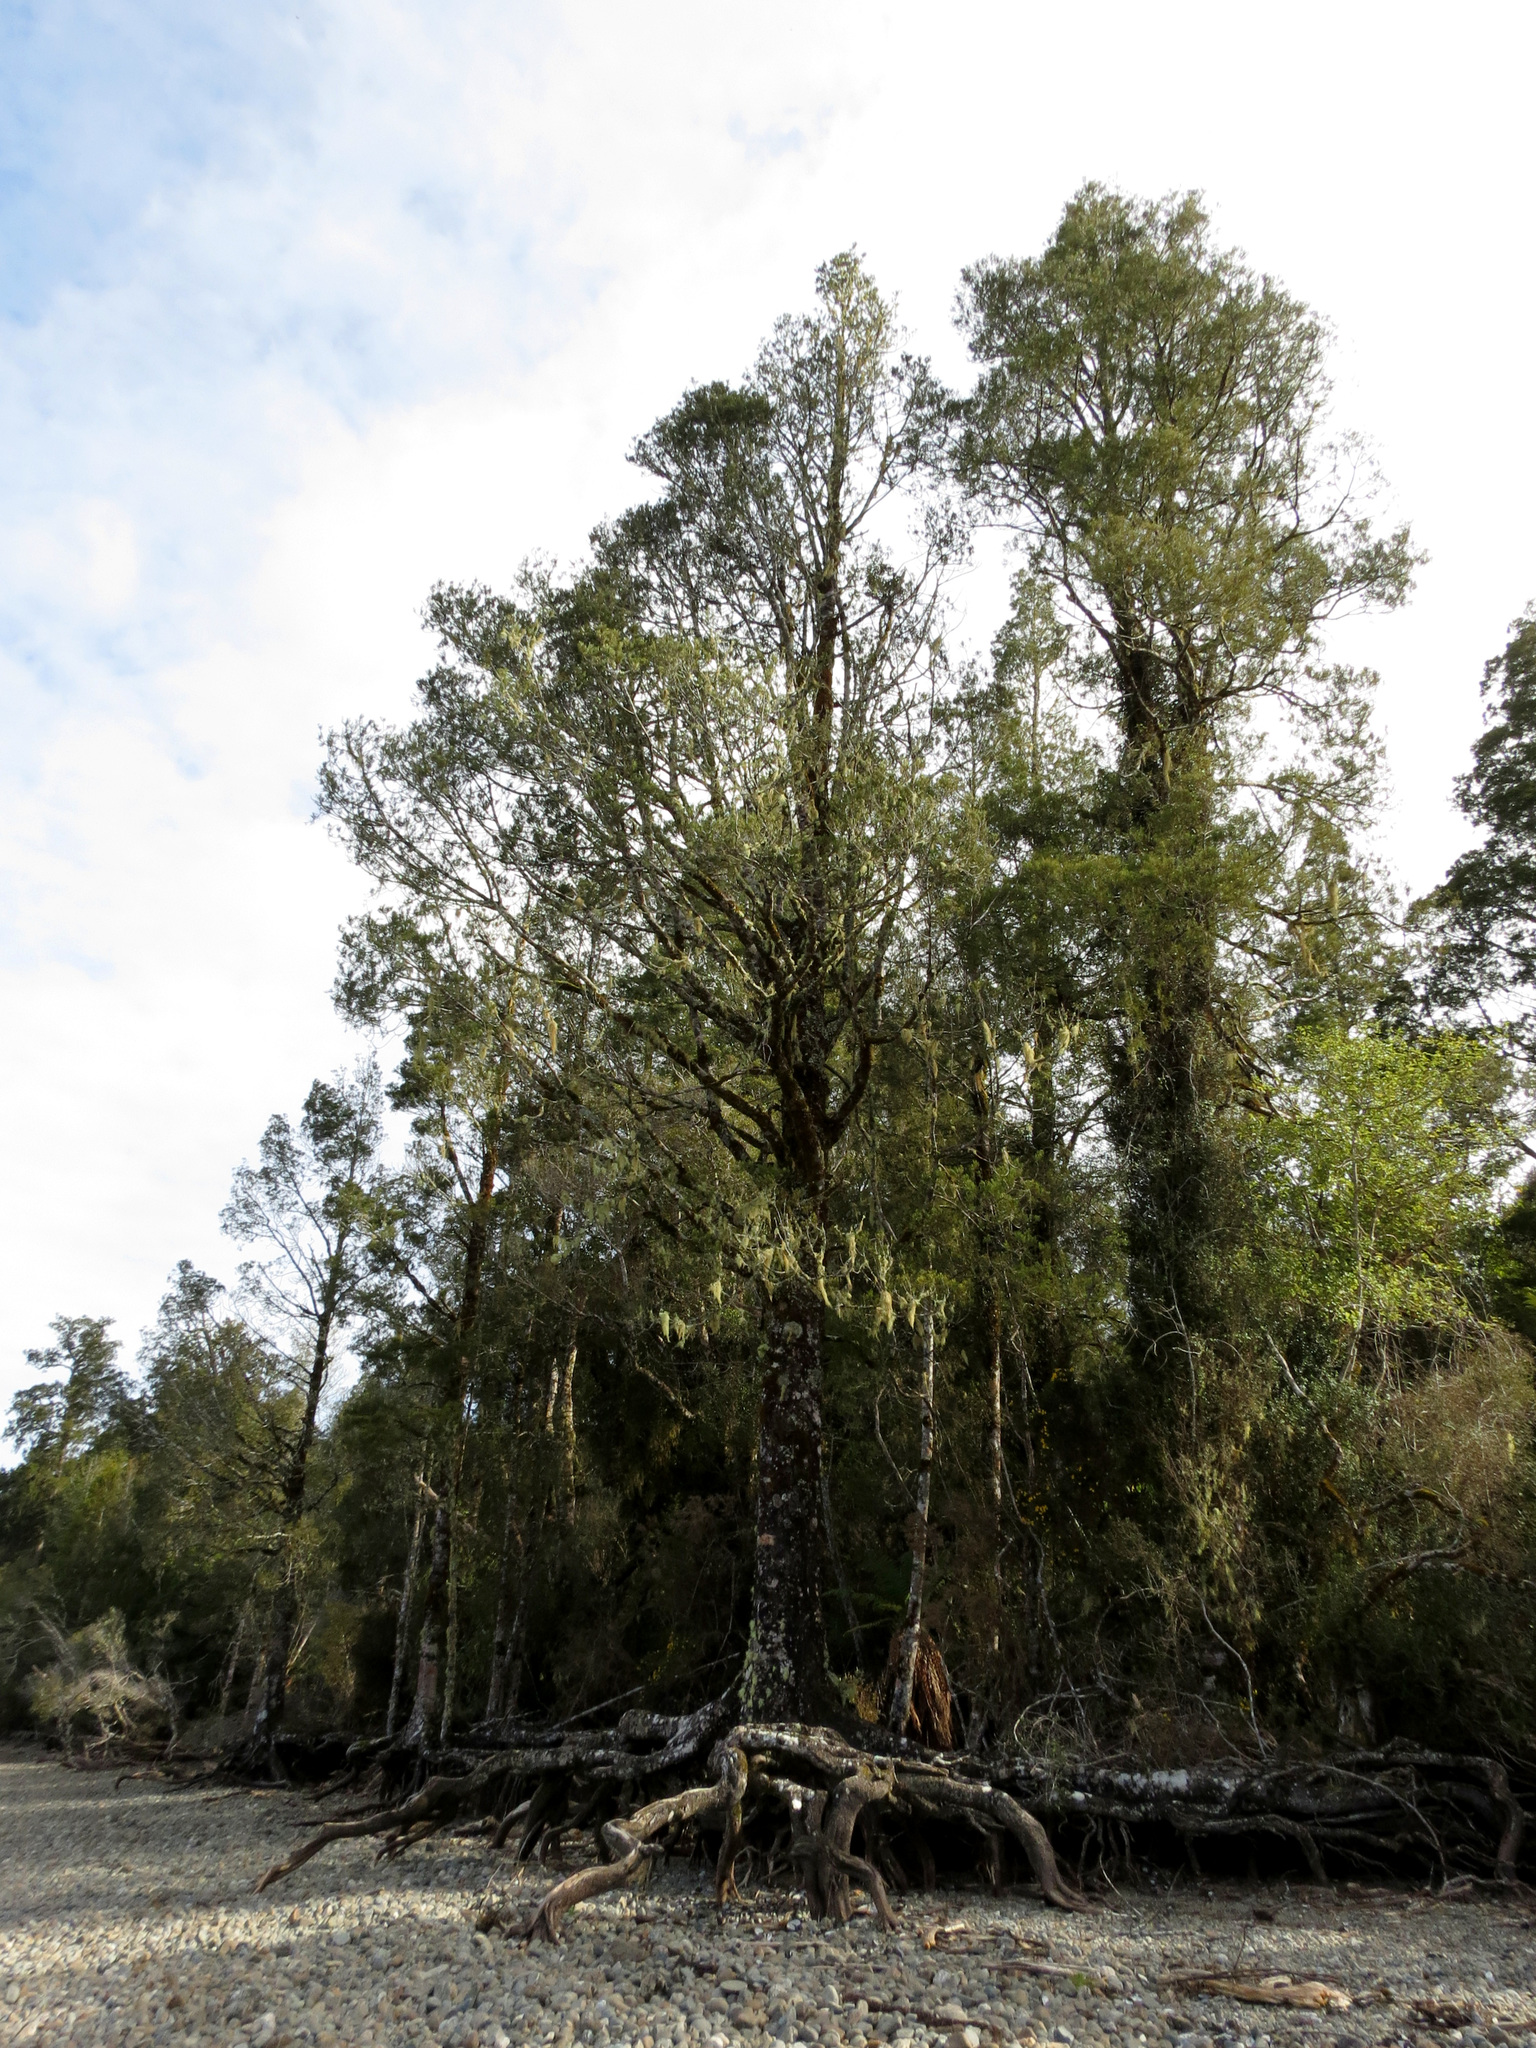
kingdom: Plantae
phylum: Tracheophyta
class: Pinopsida
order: Pinales
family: Podocarpaceae
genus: Dacrycarpus
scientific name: Dacrycarpus dacrydioides
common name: White pine
